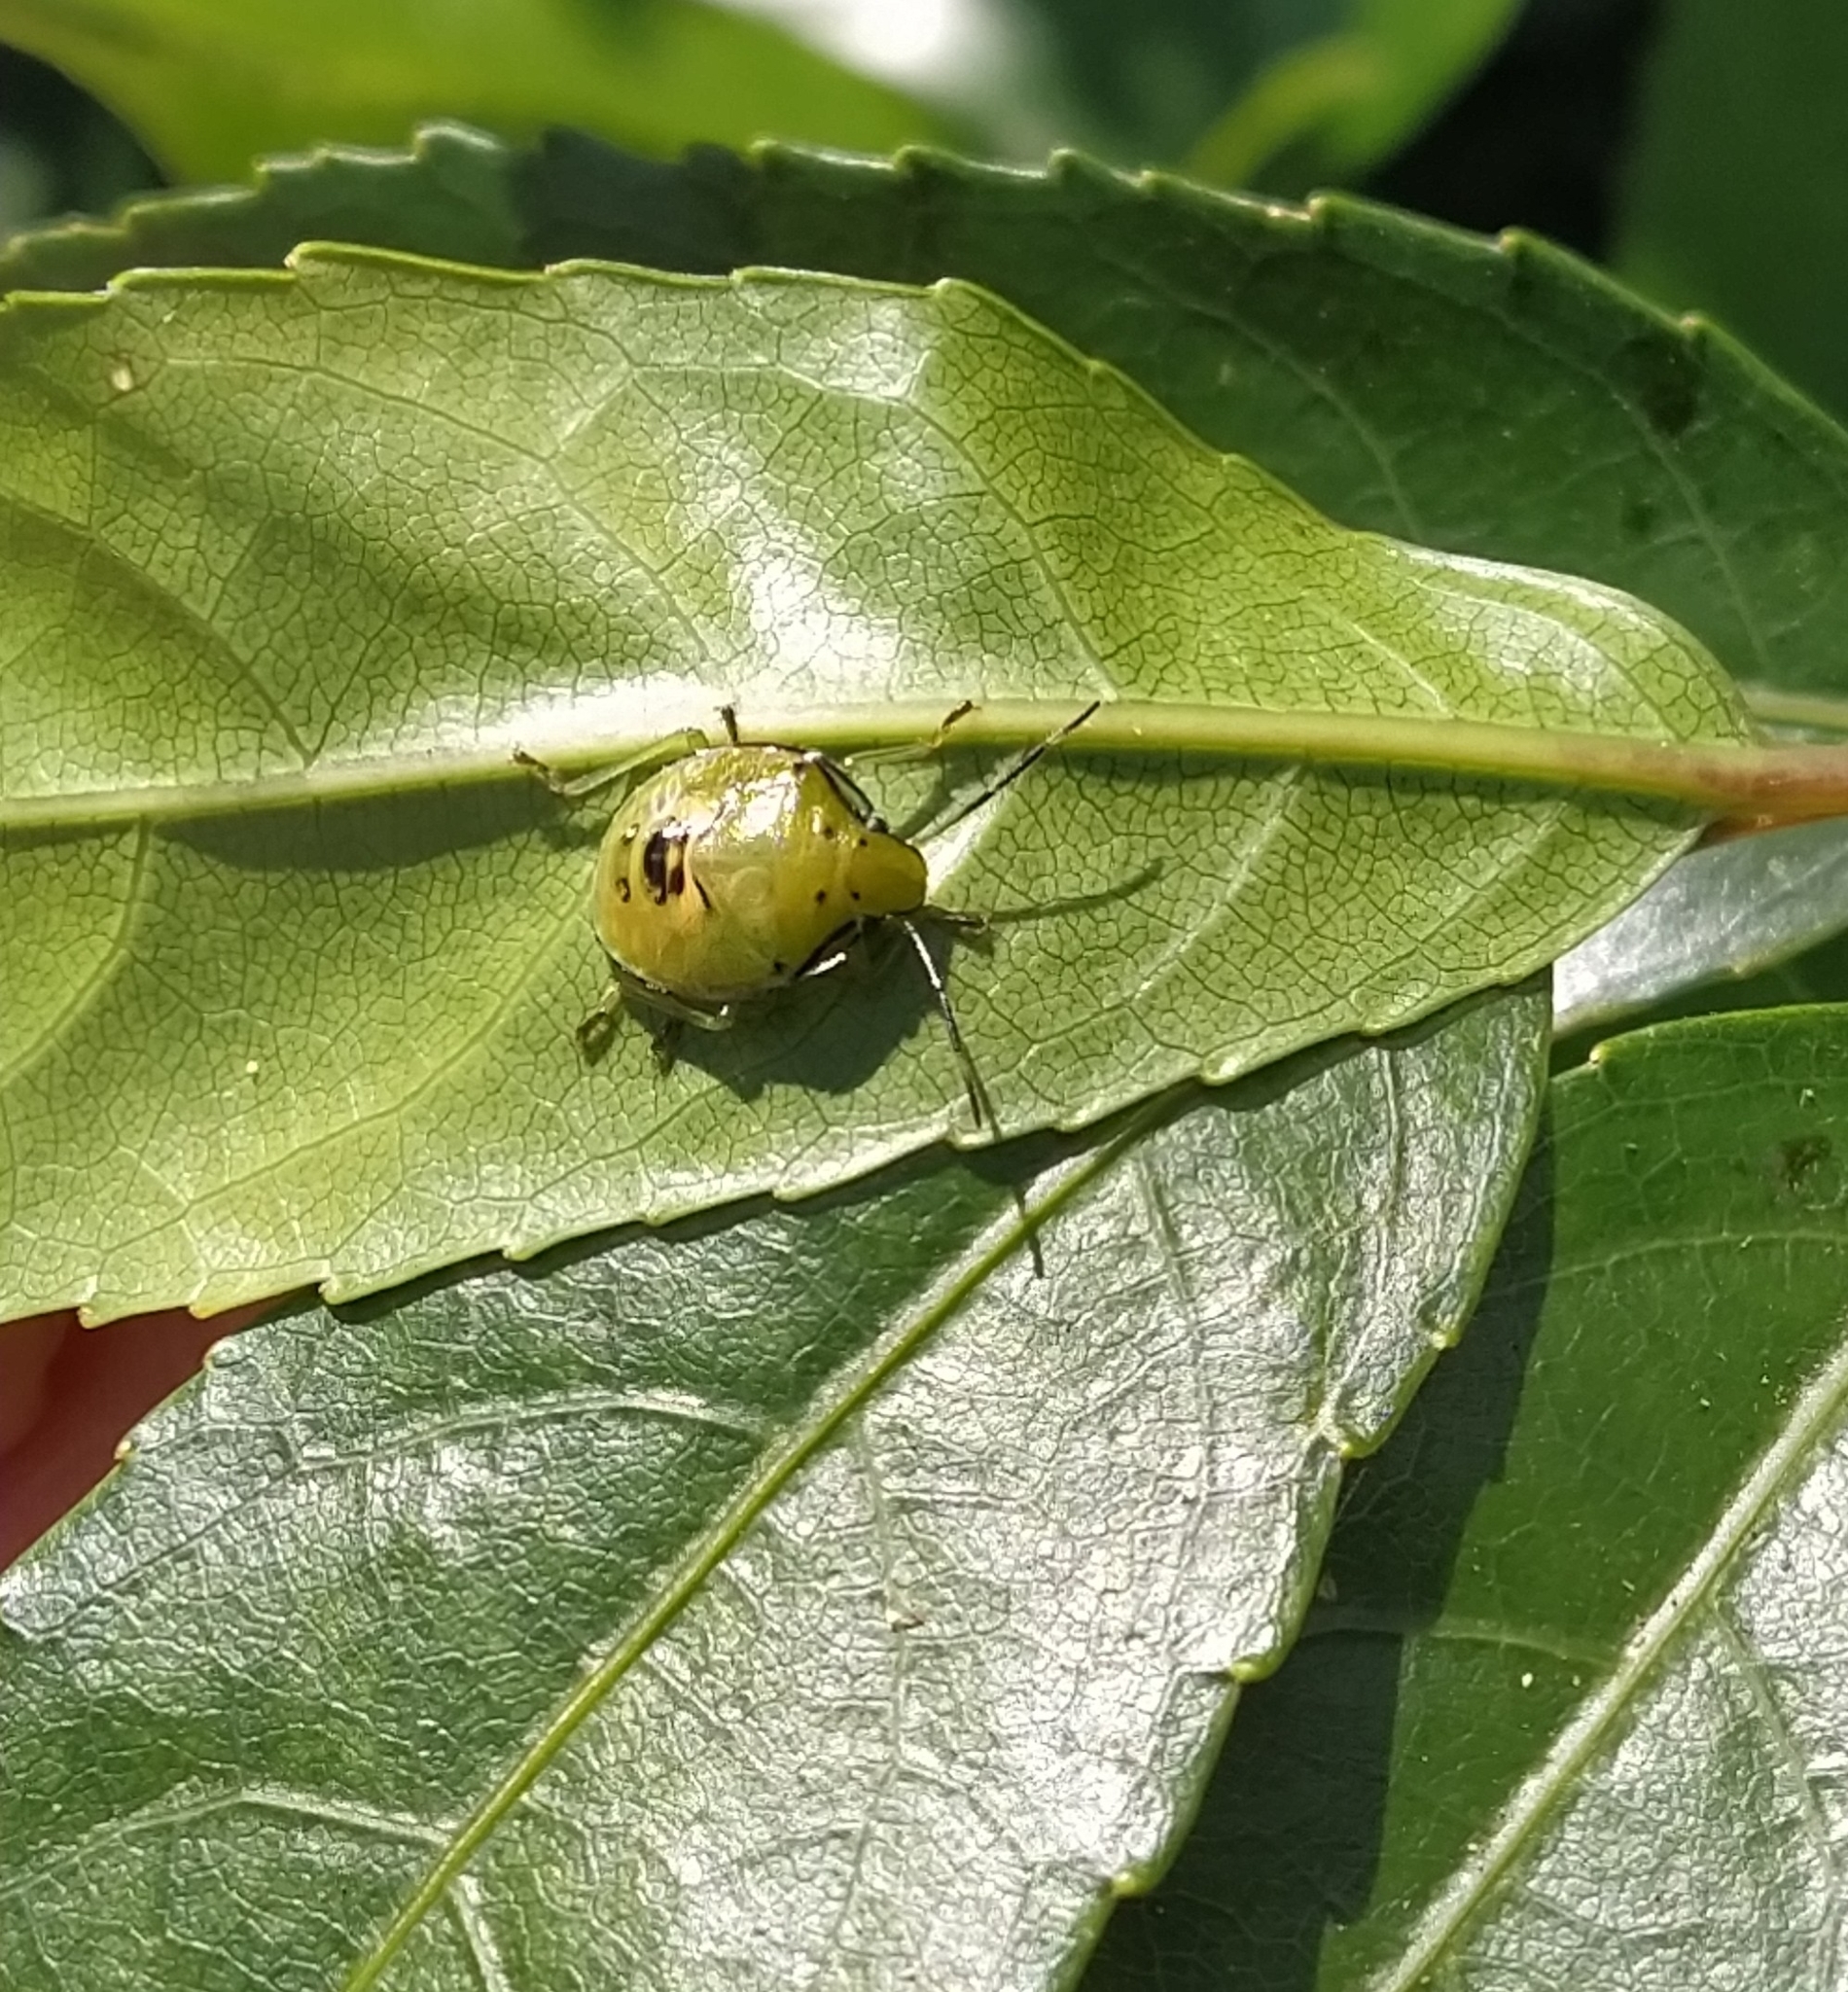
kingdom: Animalia
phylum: Arthropoda
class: Insecta
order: Hemiptera
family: Pentatomidae
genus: Glaucias
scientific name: Glaucias amyota
